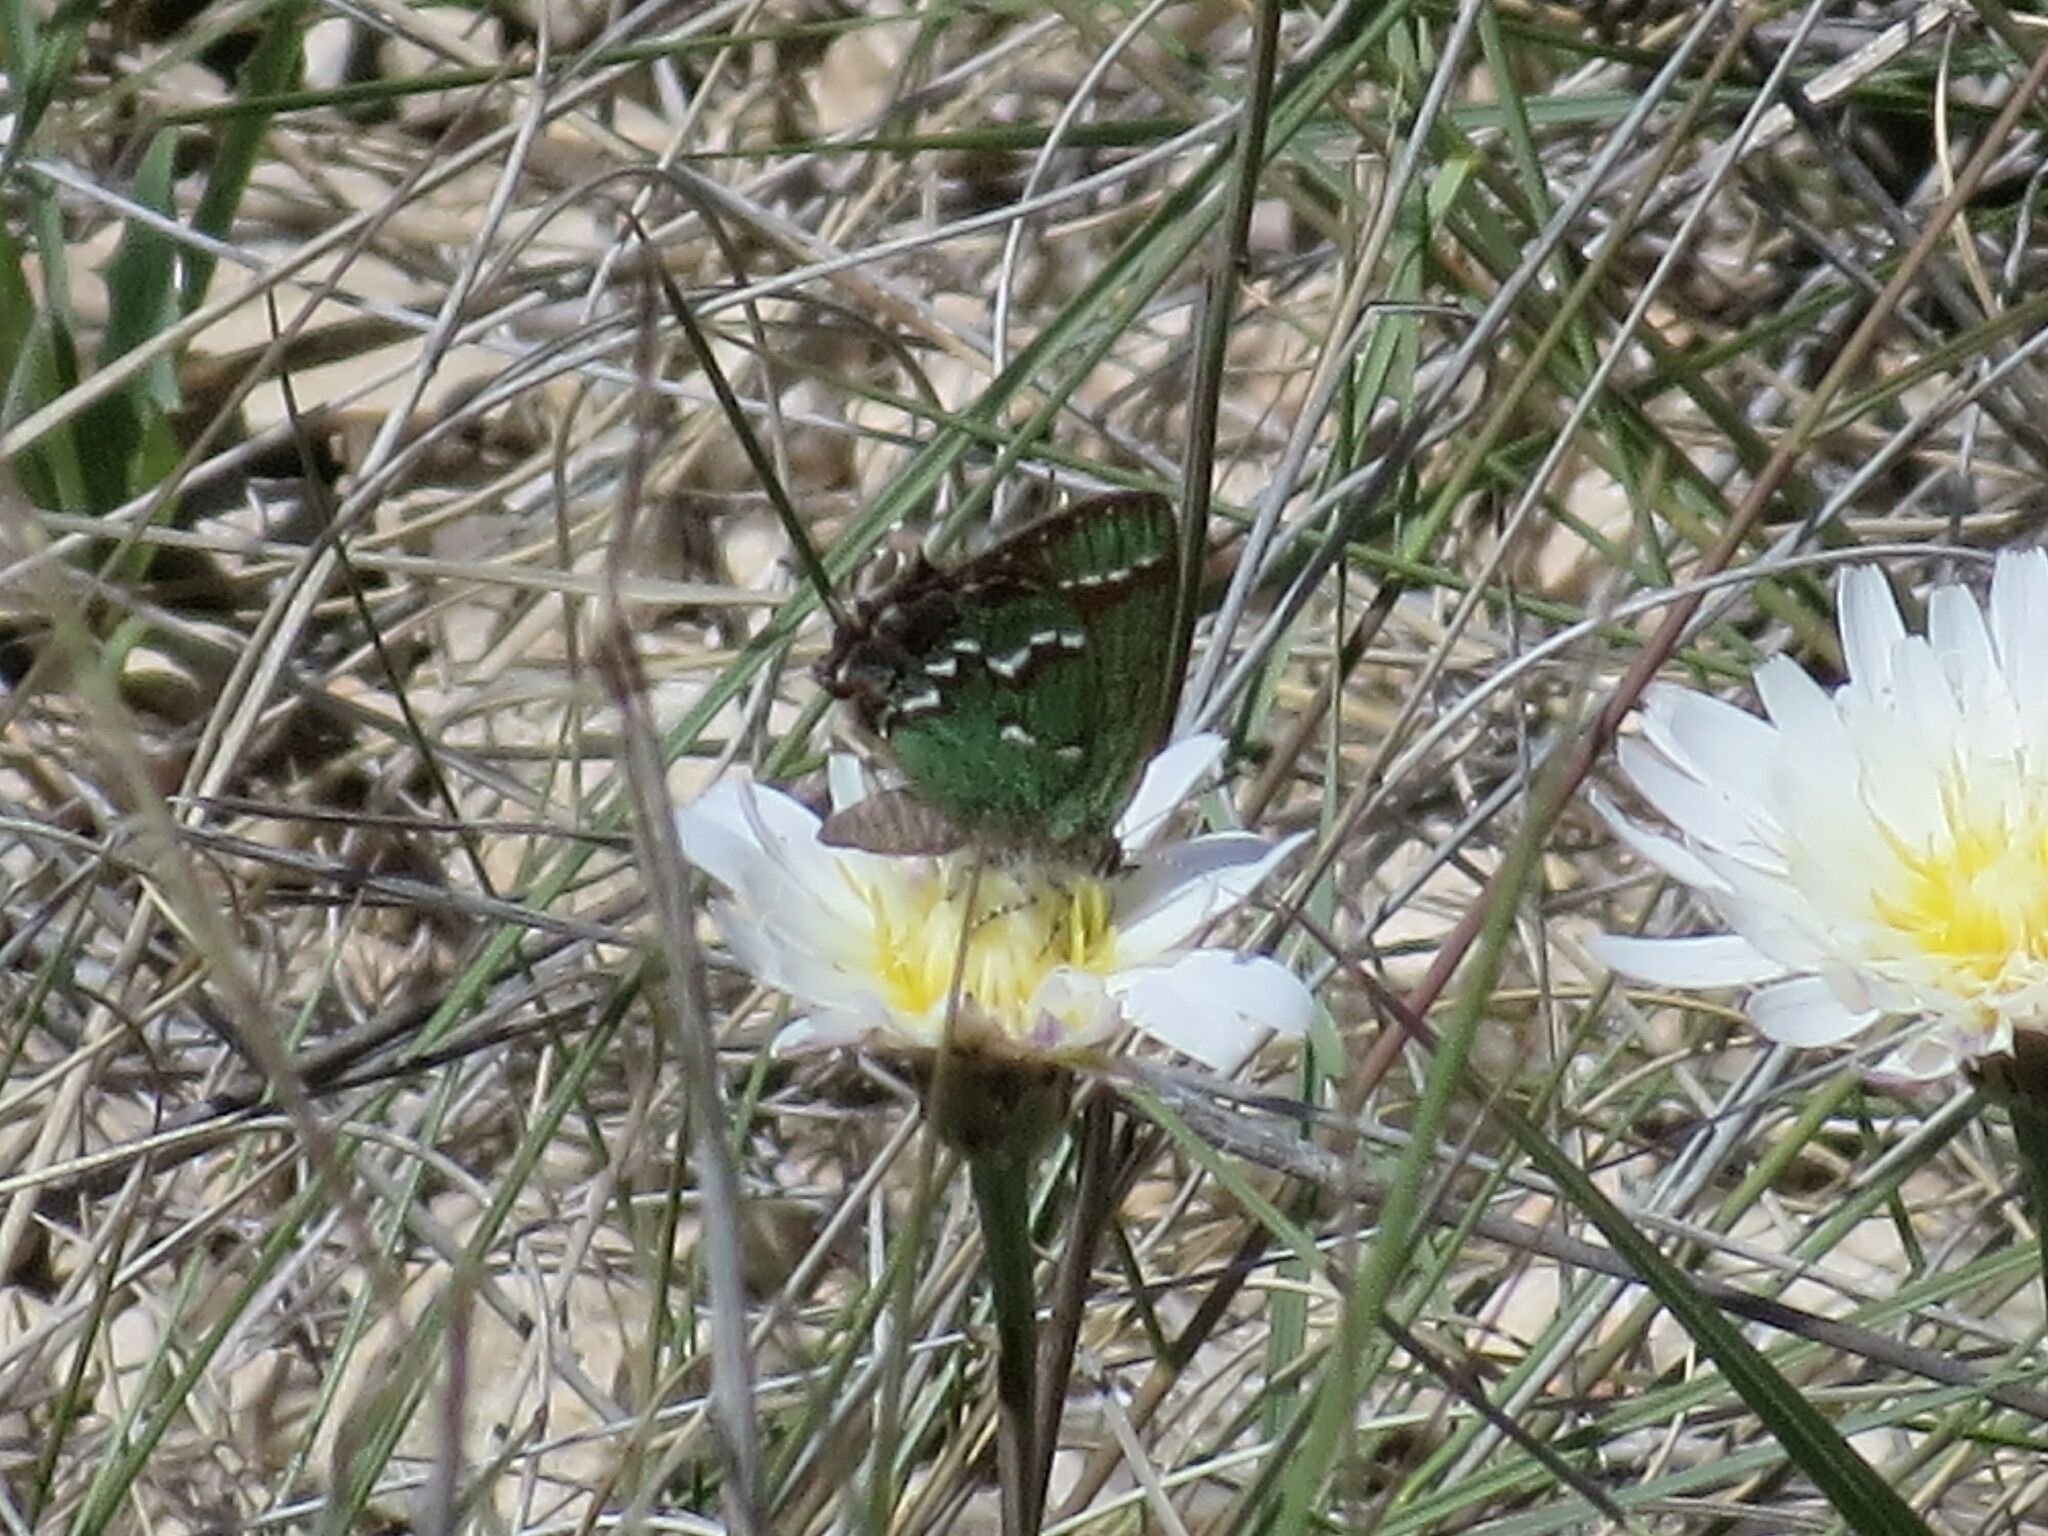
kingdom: Animalia
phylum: Arthropoda
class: Insecta
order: Lepidoptera
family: Lycaenidae
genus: Mitoura
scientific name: Mitoura gryneus
